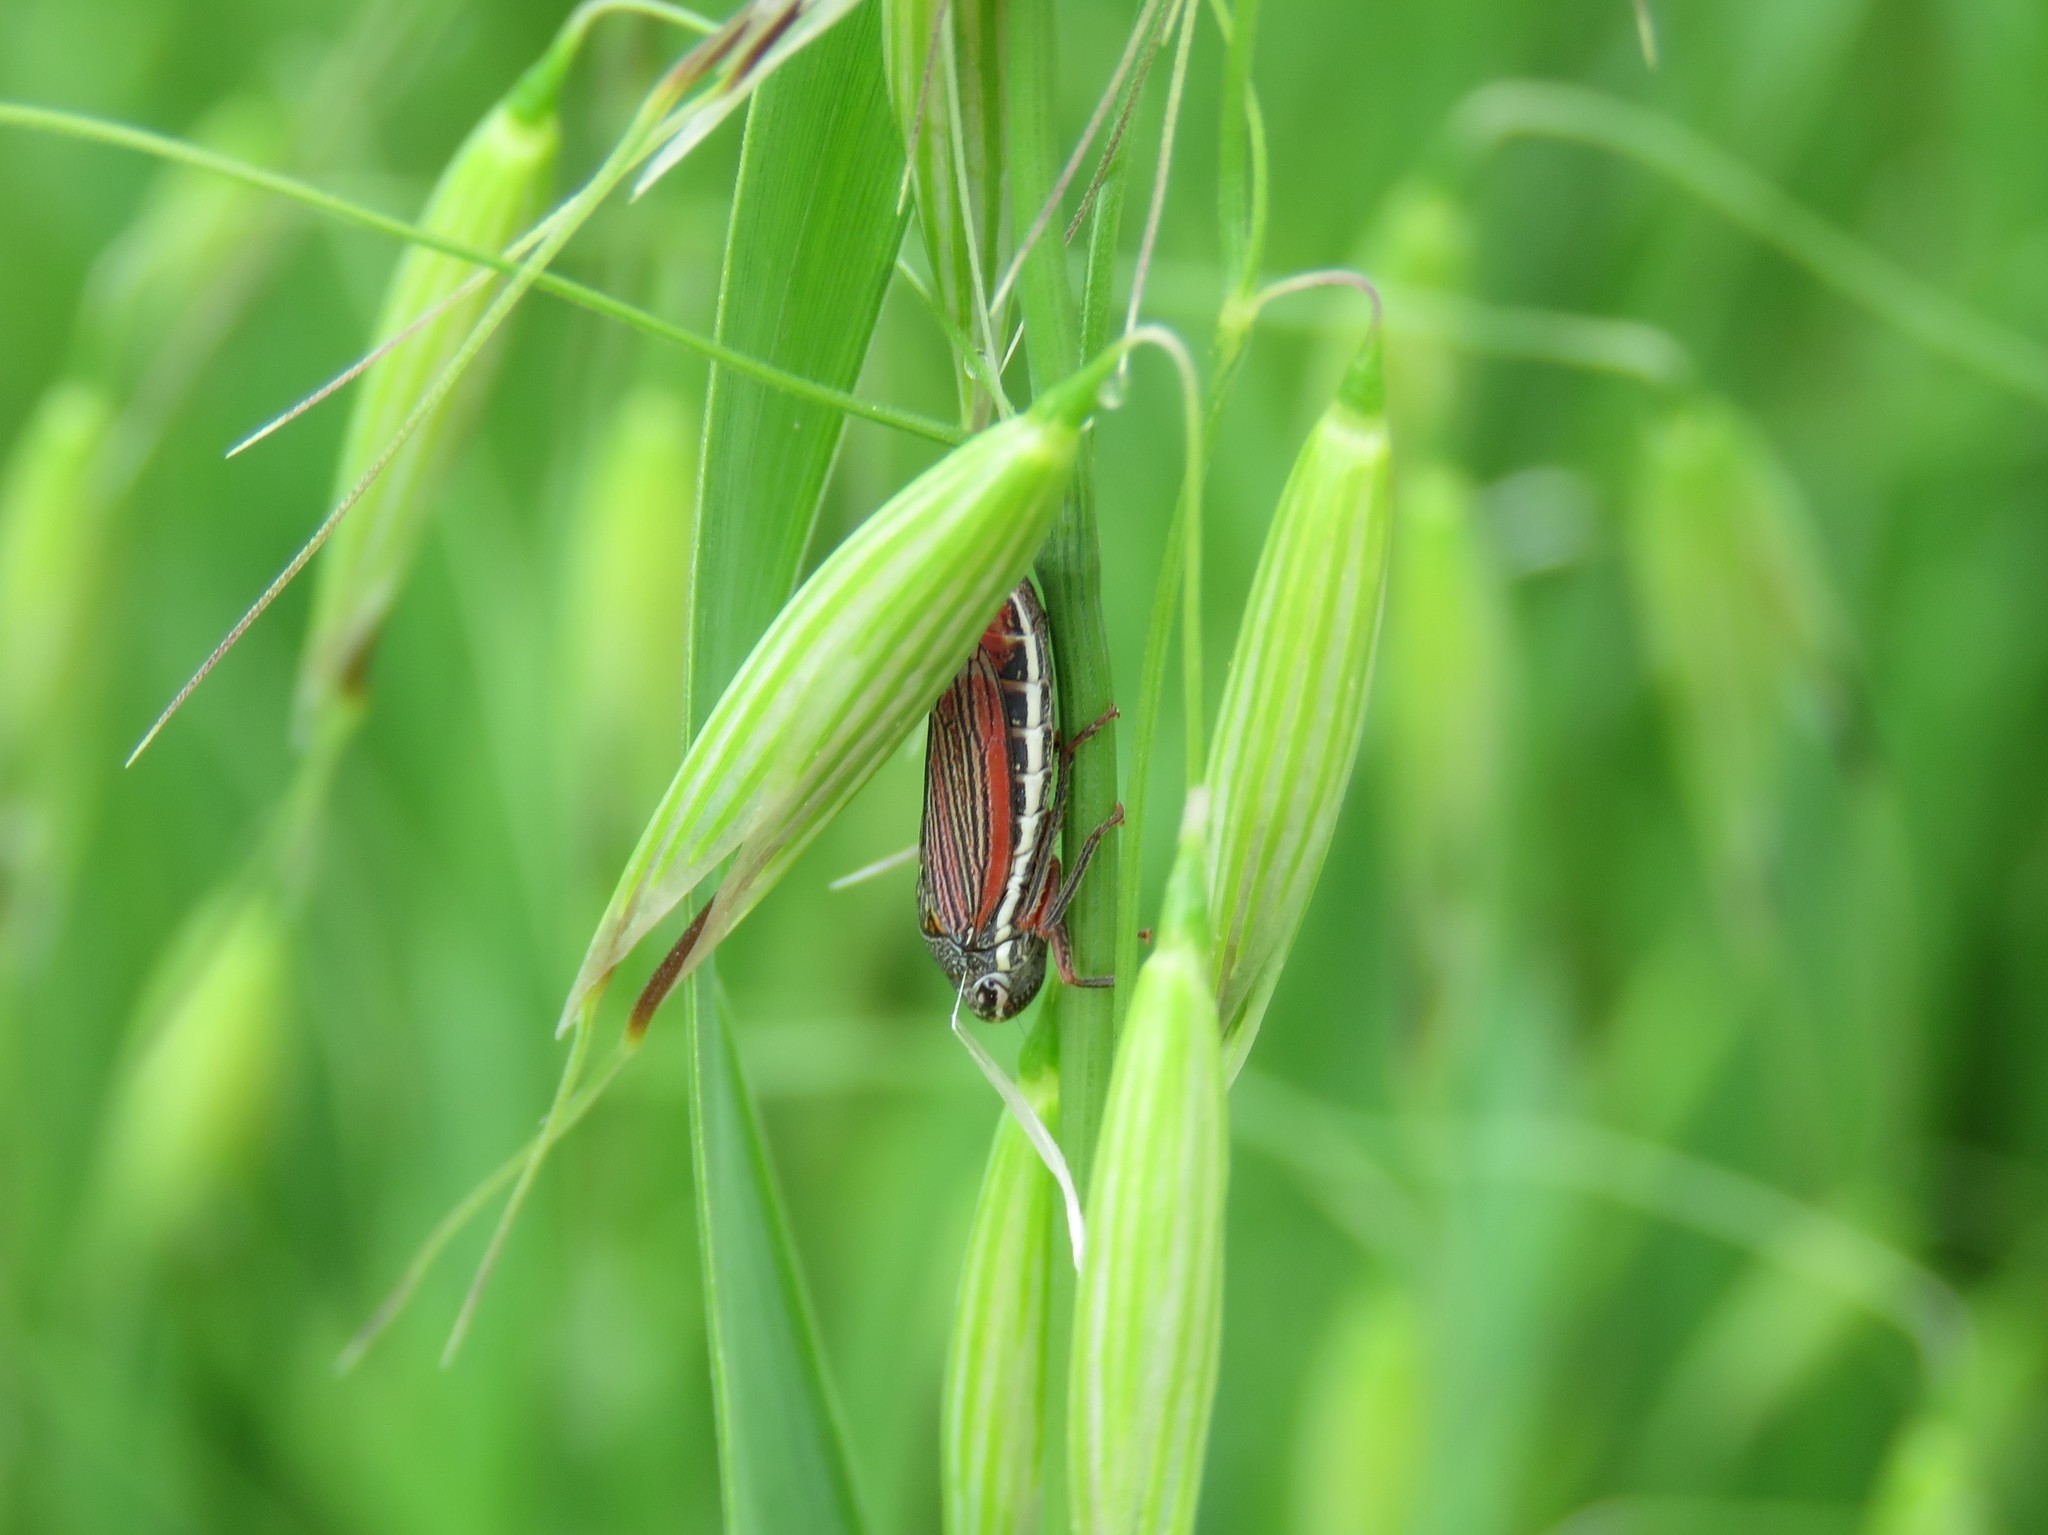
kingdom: Animalia
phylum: Arthropoda
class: Insecta
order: Hemiptera
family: Cicadellidae
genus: Cuerna
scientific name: Cuerna costalis
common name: Lateral-lined sharpshooter
